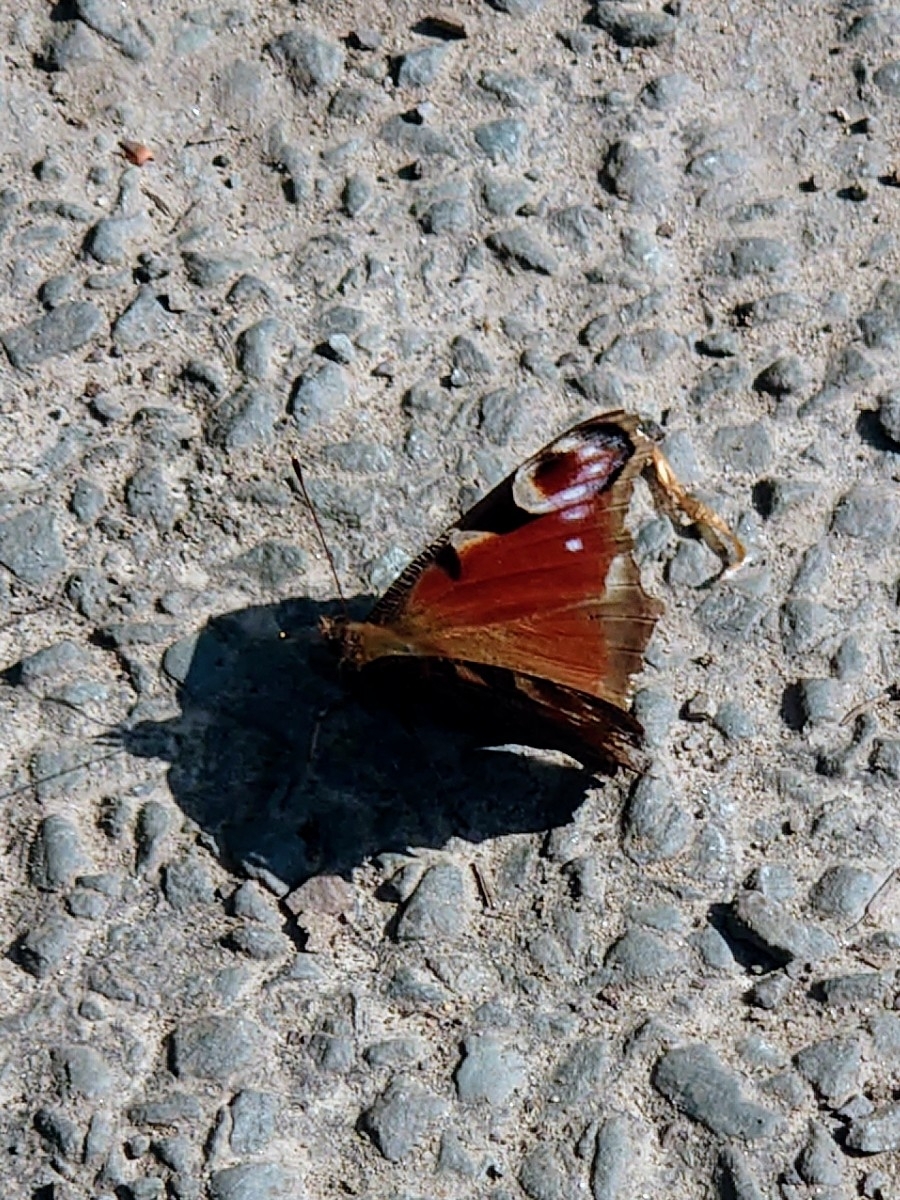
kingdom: Animalia
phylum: Arthropoda
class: Insecta
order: Lepidoptera
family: Nymphalidae
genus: Aglais
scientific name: Aglais io
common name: Peacock
